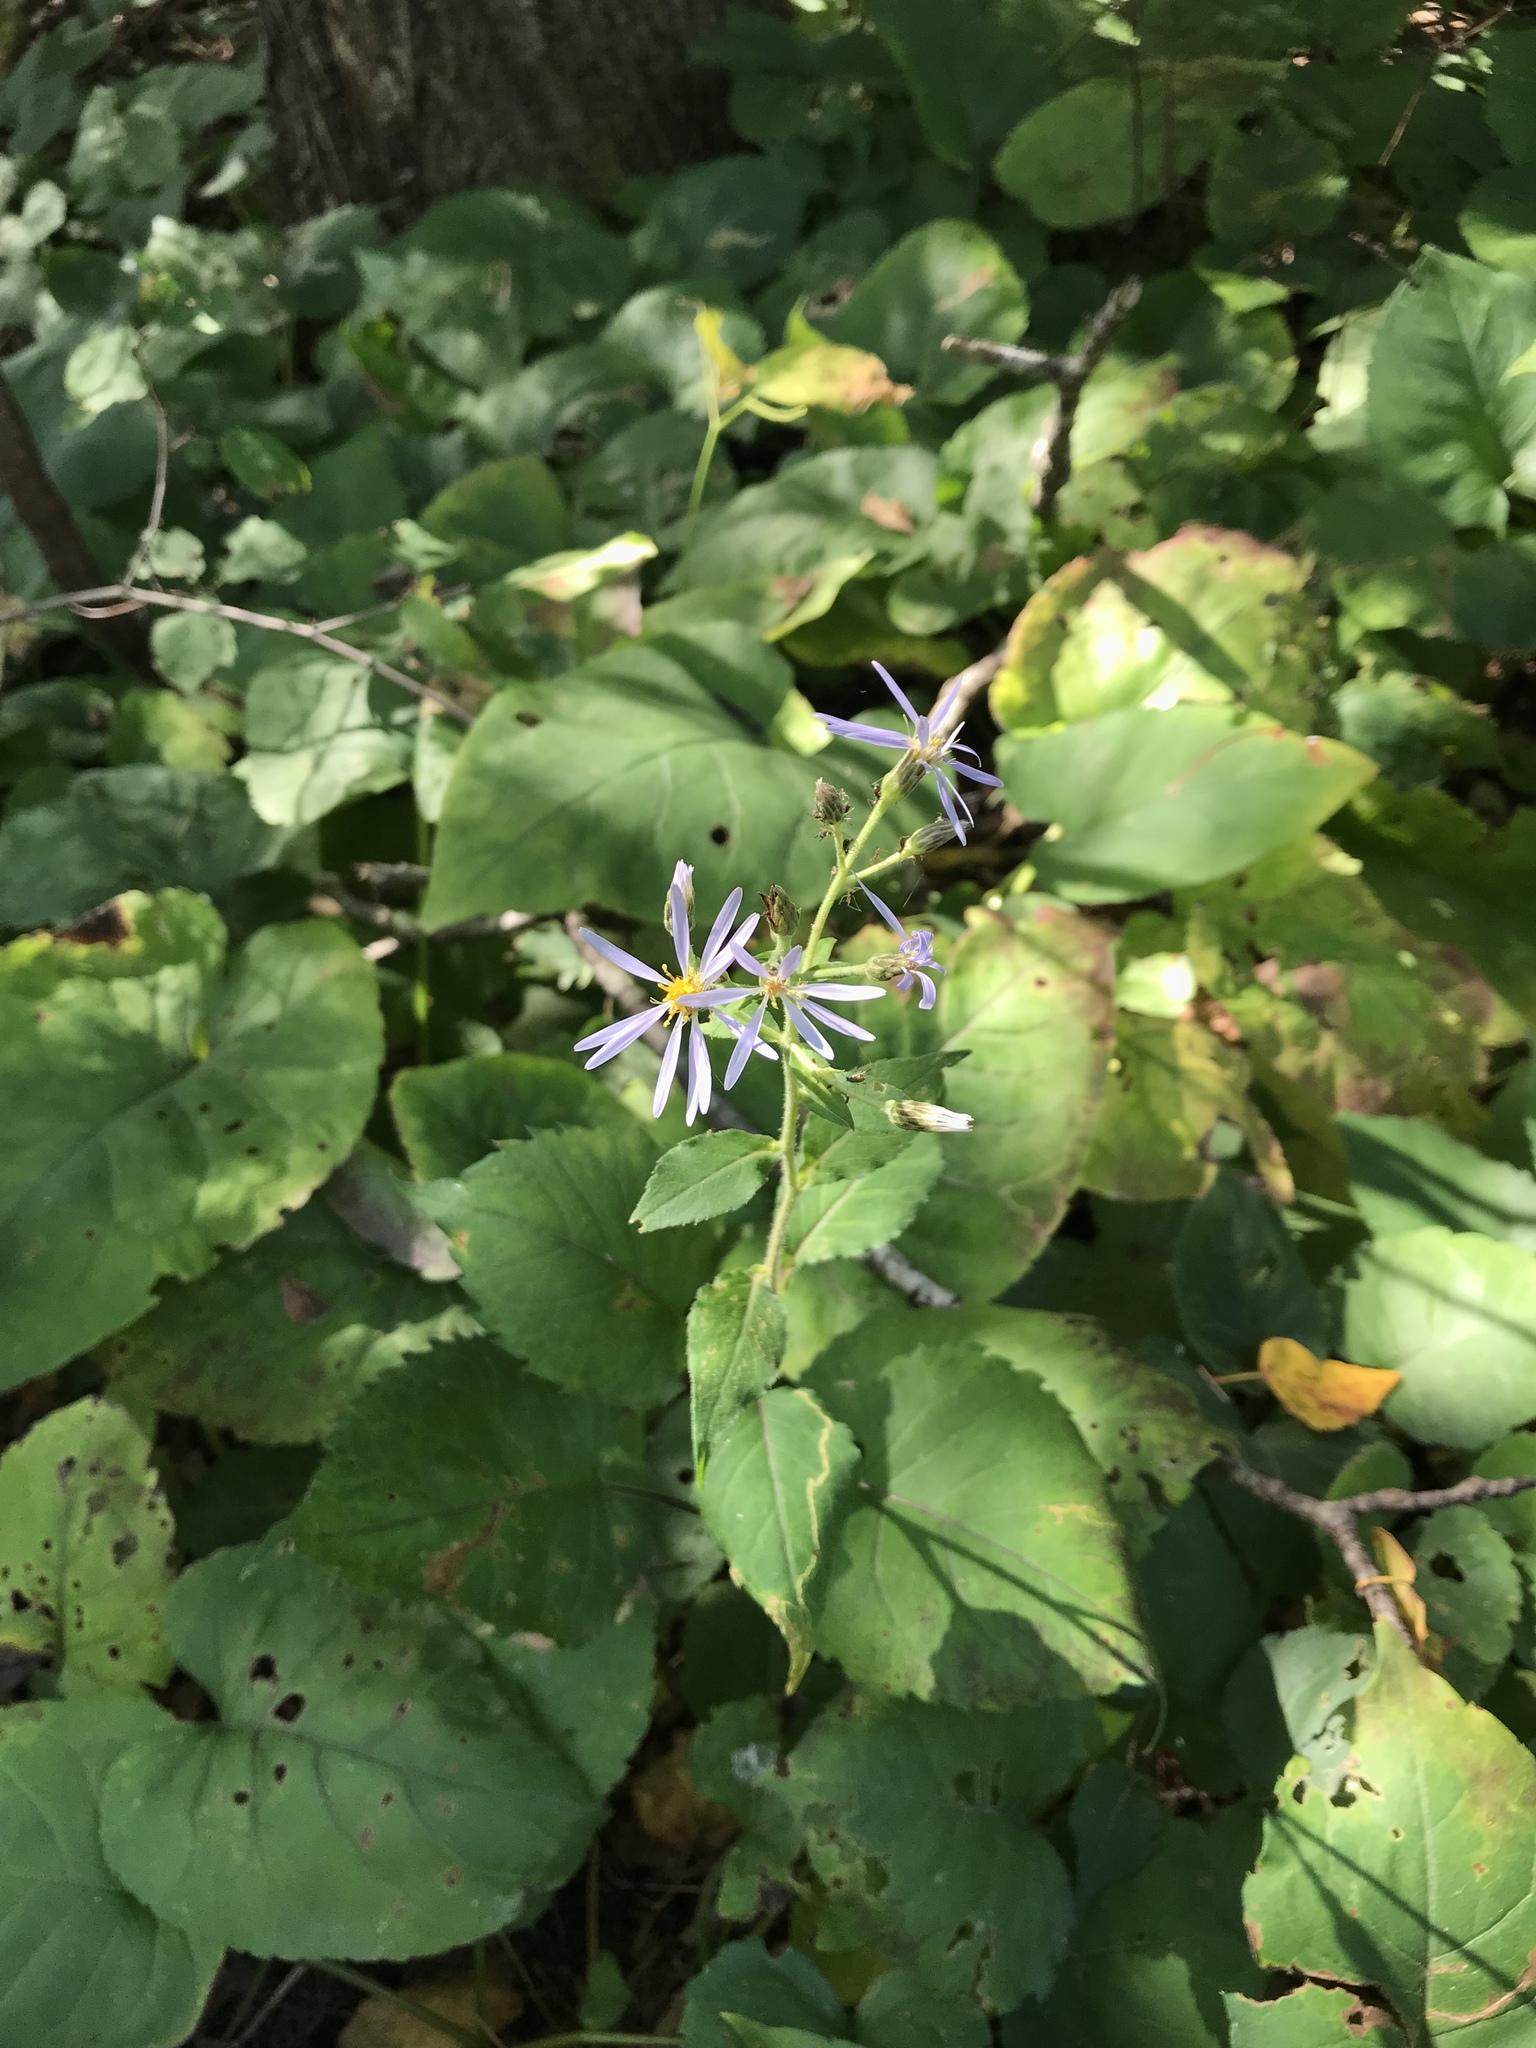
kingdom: Plantae
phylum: Tracheophyta
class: Magnoliopsida
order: Asterales
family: Asteraceae
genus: Eurybia
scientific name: Eurybia macrophylla
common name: Big-leaved aster
